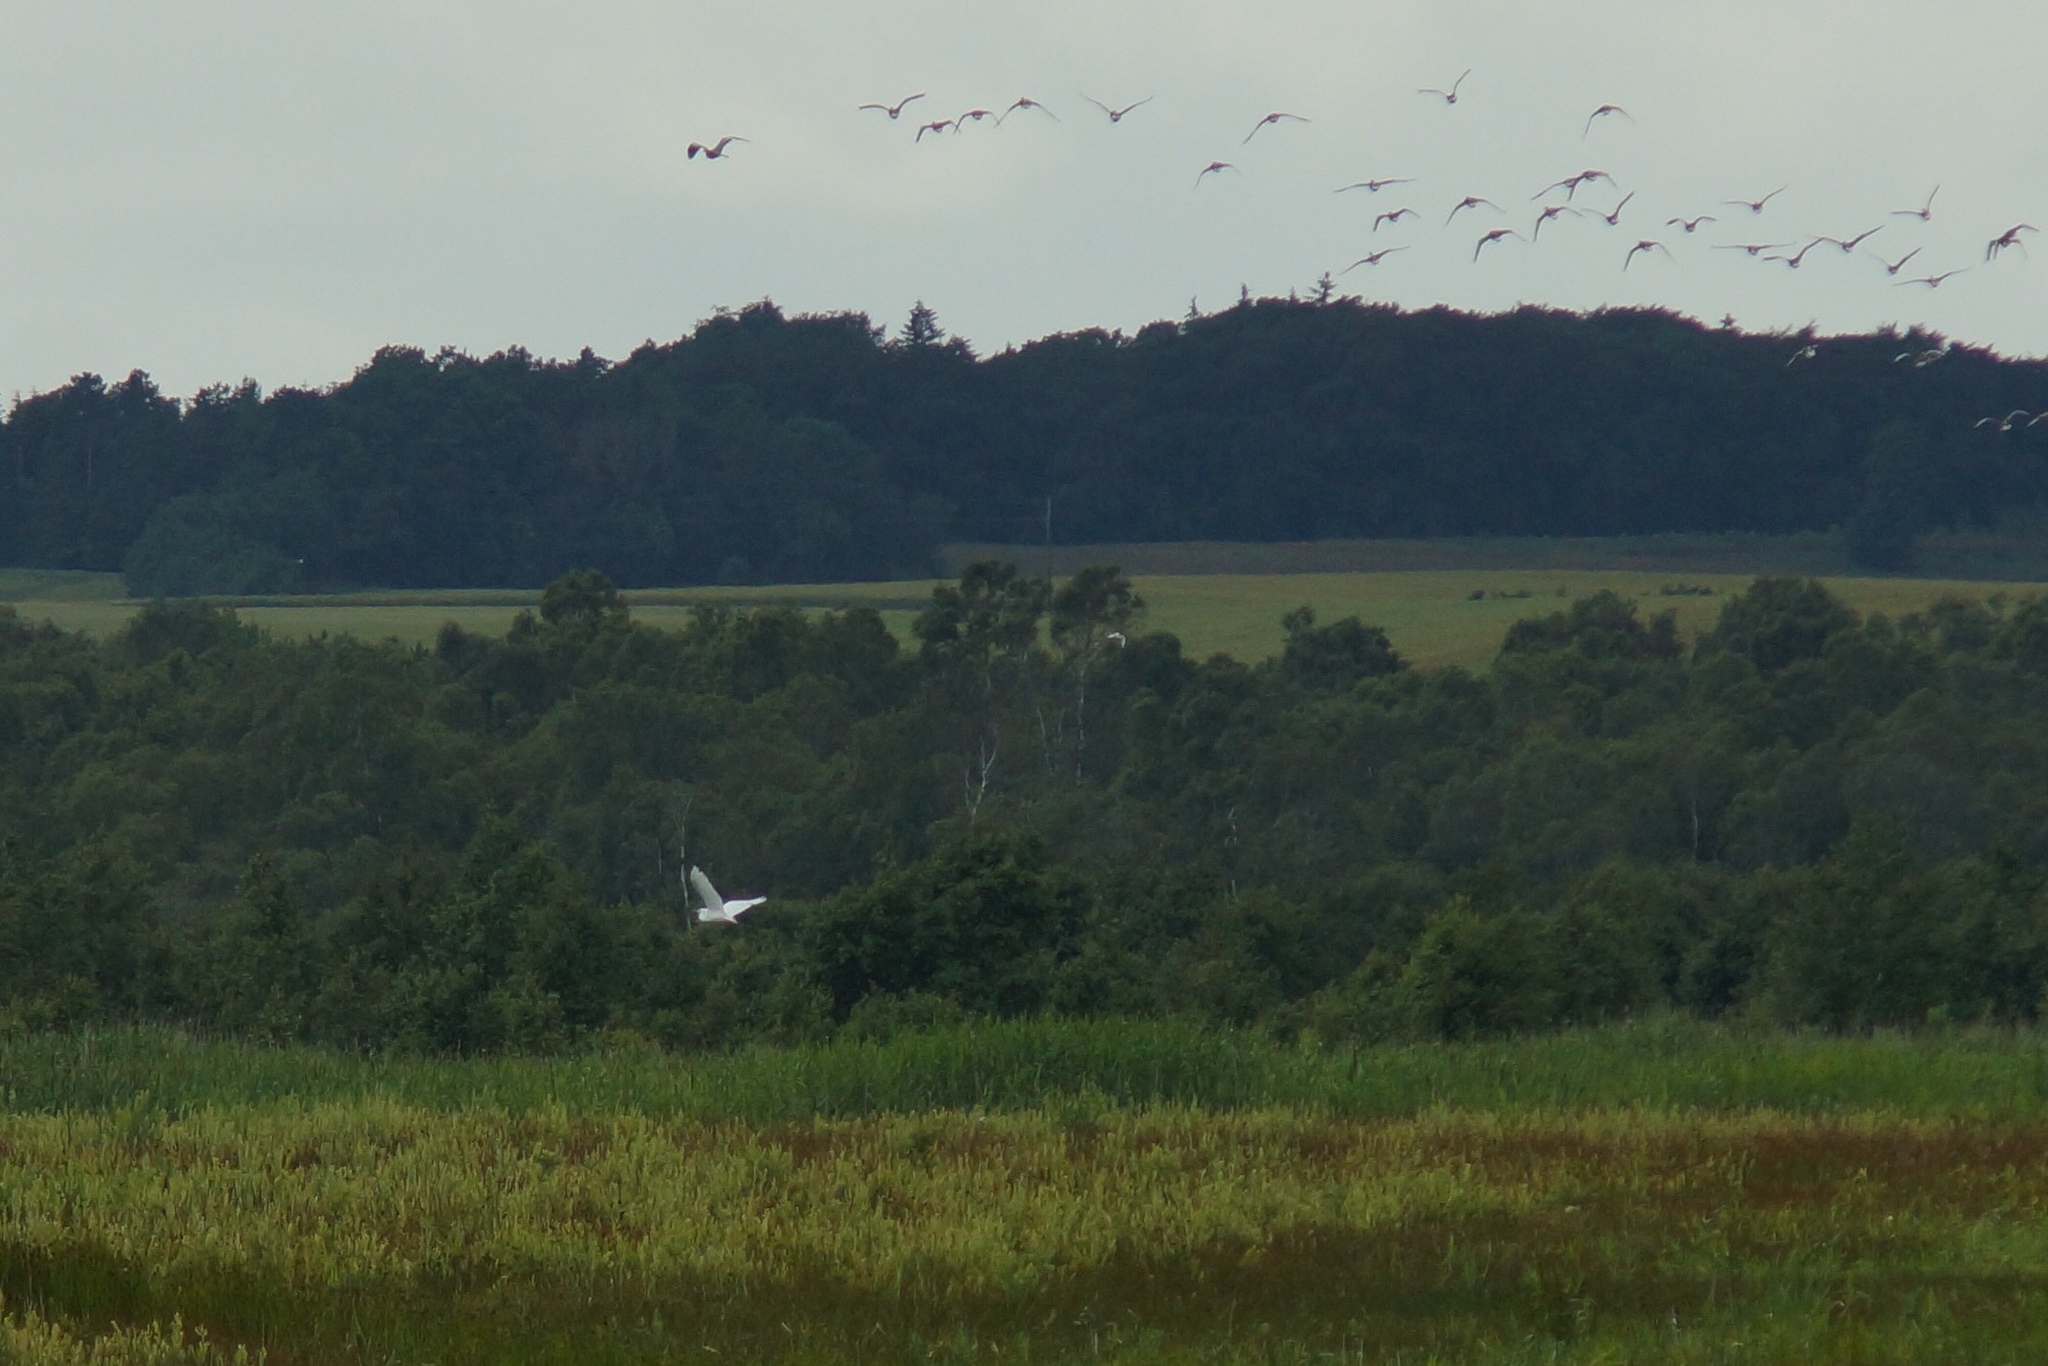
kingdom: Animalia
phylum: Chordata
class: Aves
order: Pelecaniformes
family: Ardeidae
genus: Ardea
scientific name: Ardea alba
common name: Great egret
